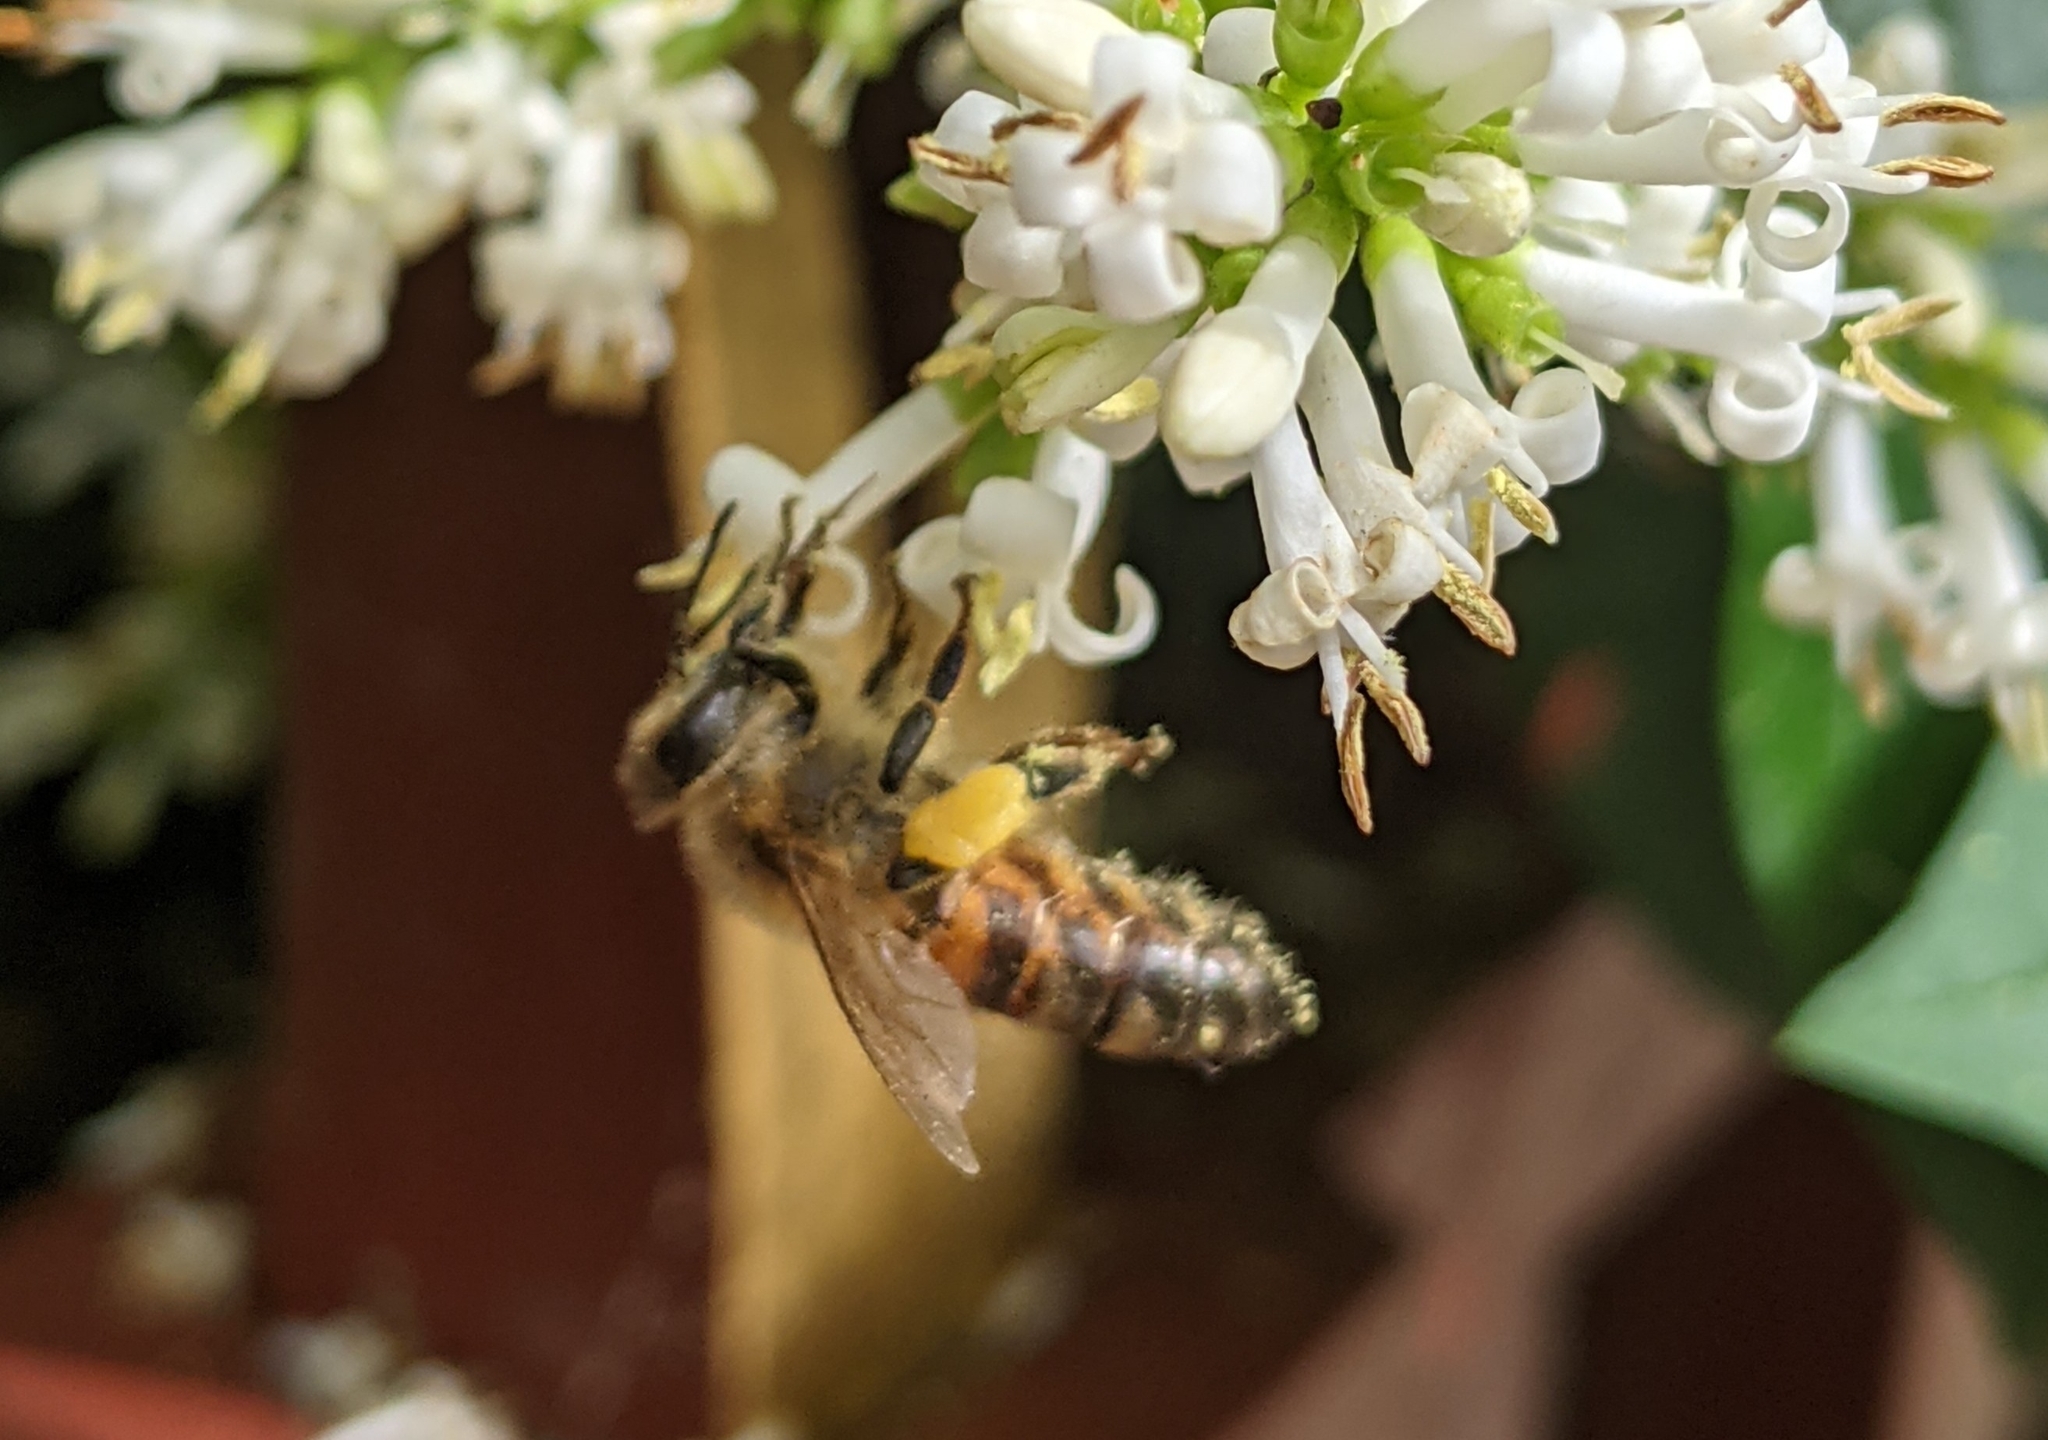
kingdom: Animalia
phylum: Arthropoda
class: Insecta
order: Hymenoptera
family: Apidae
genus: Apis
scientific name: Apis mellifera
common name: Honey bee
